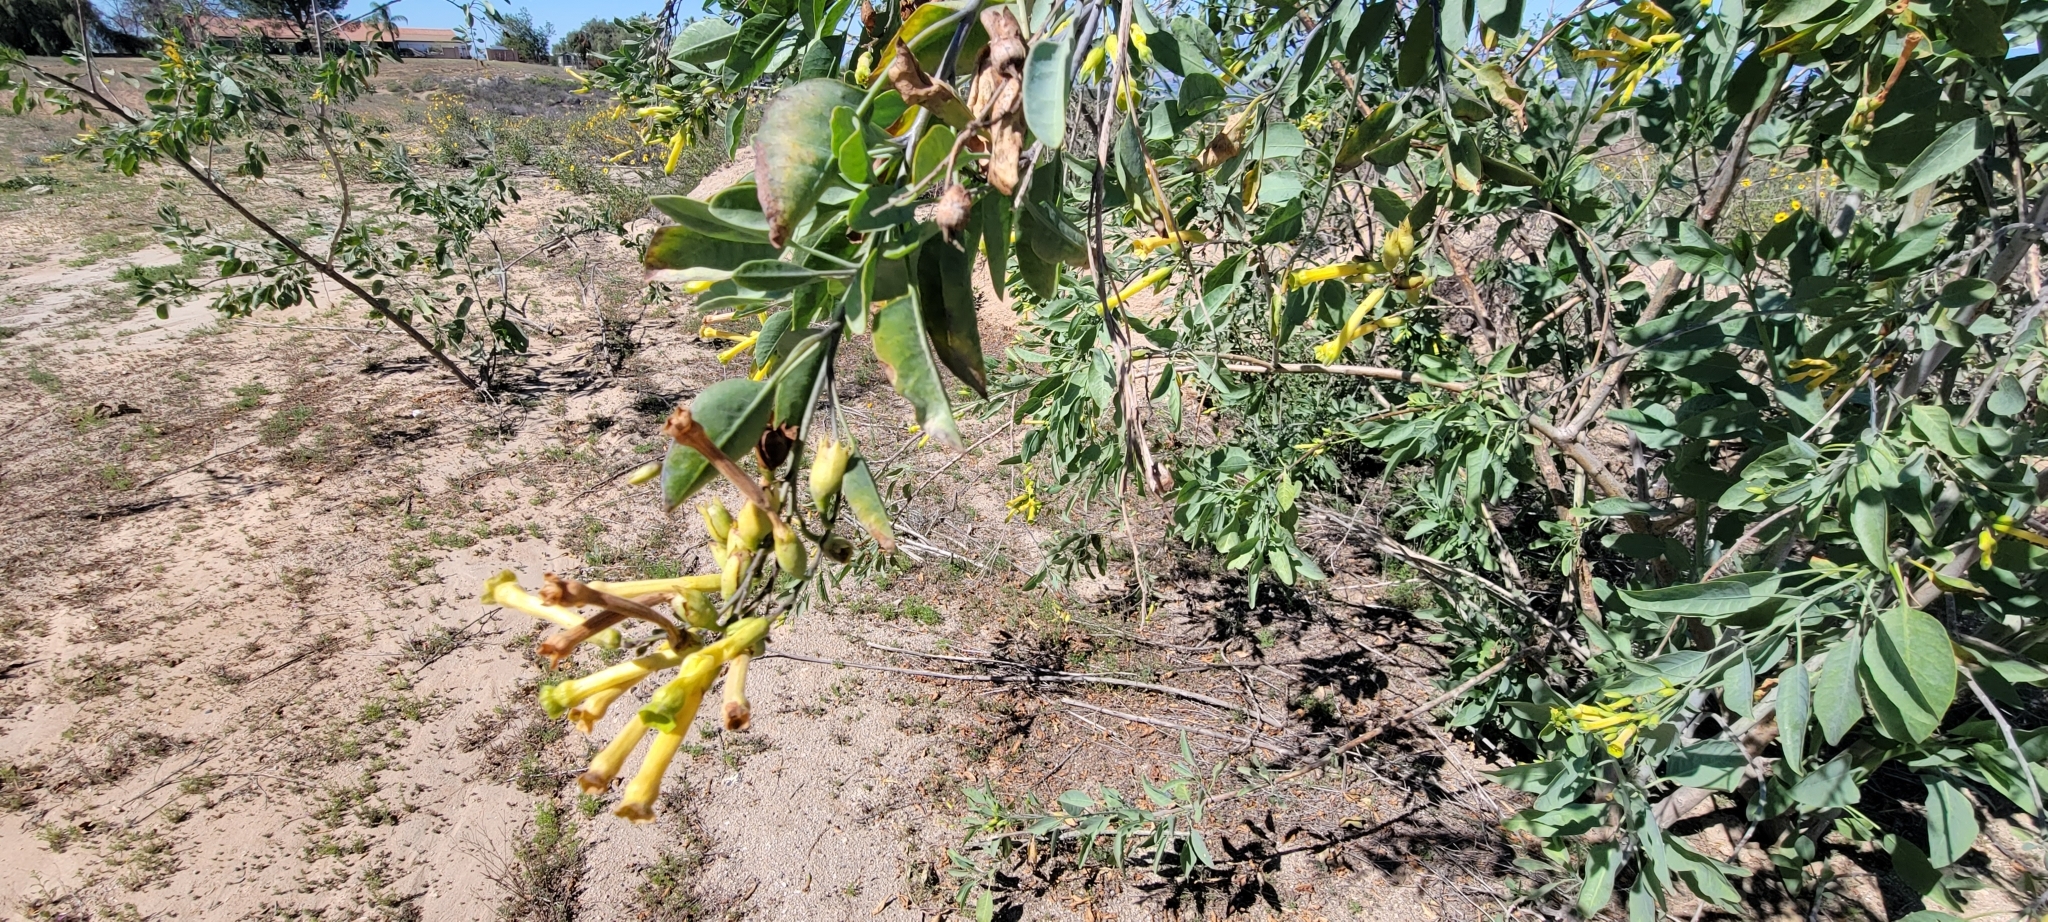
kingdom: Plantae
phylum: Tracheophyta
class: Magnoliopsida
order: Solanales
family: Solanaceae
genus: Nicotiana
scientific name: Nicotiana glauca
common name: Tree tobacco
